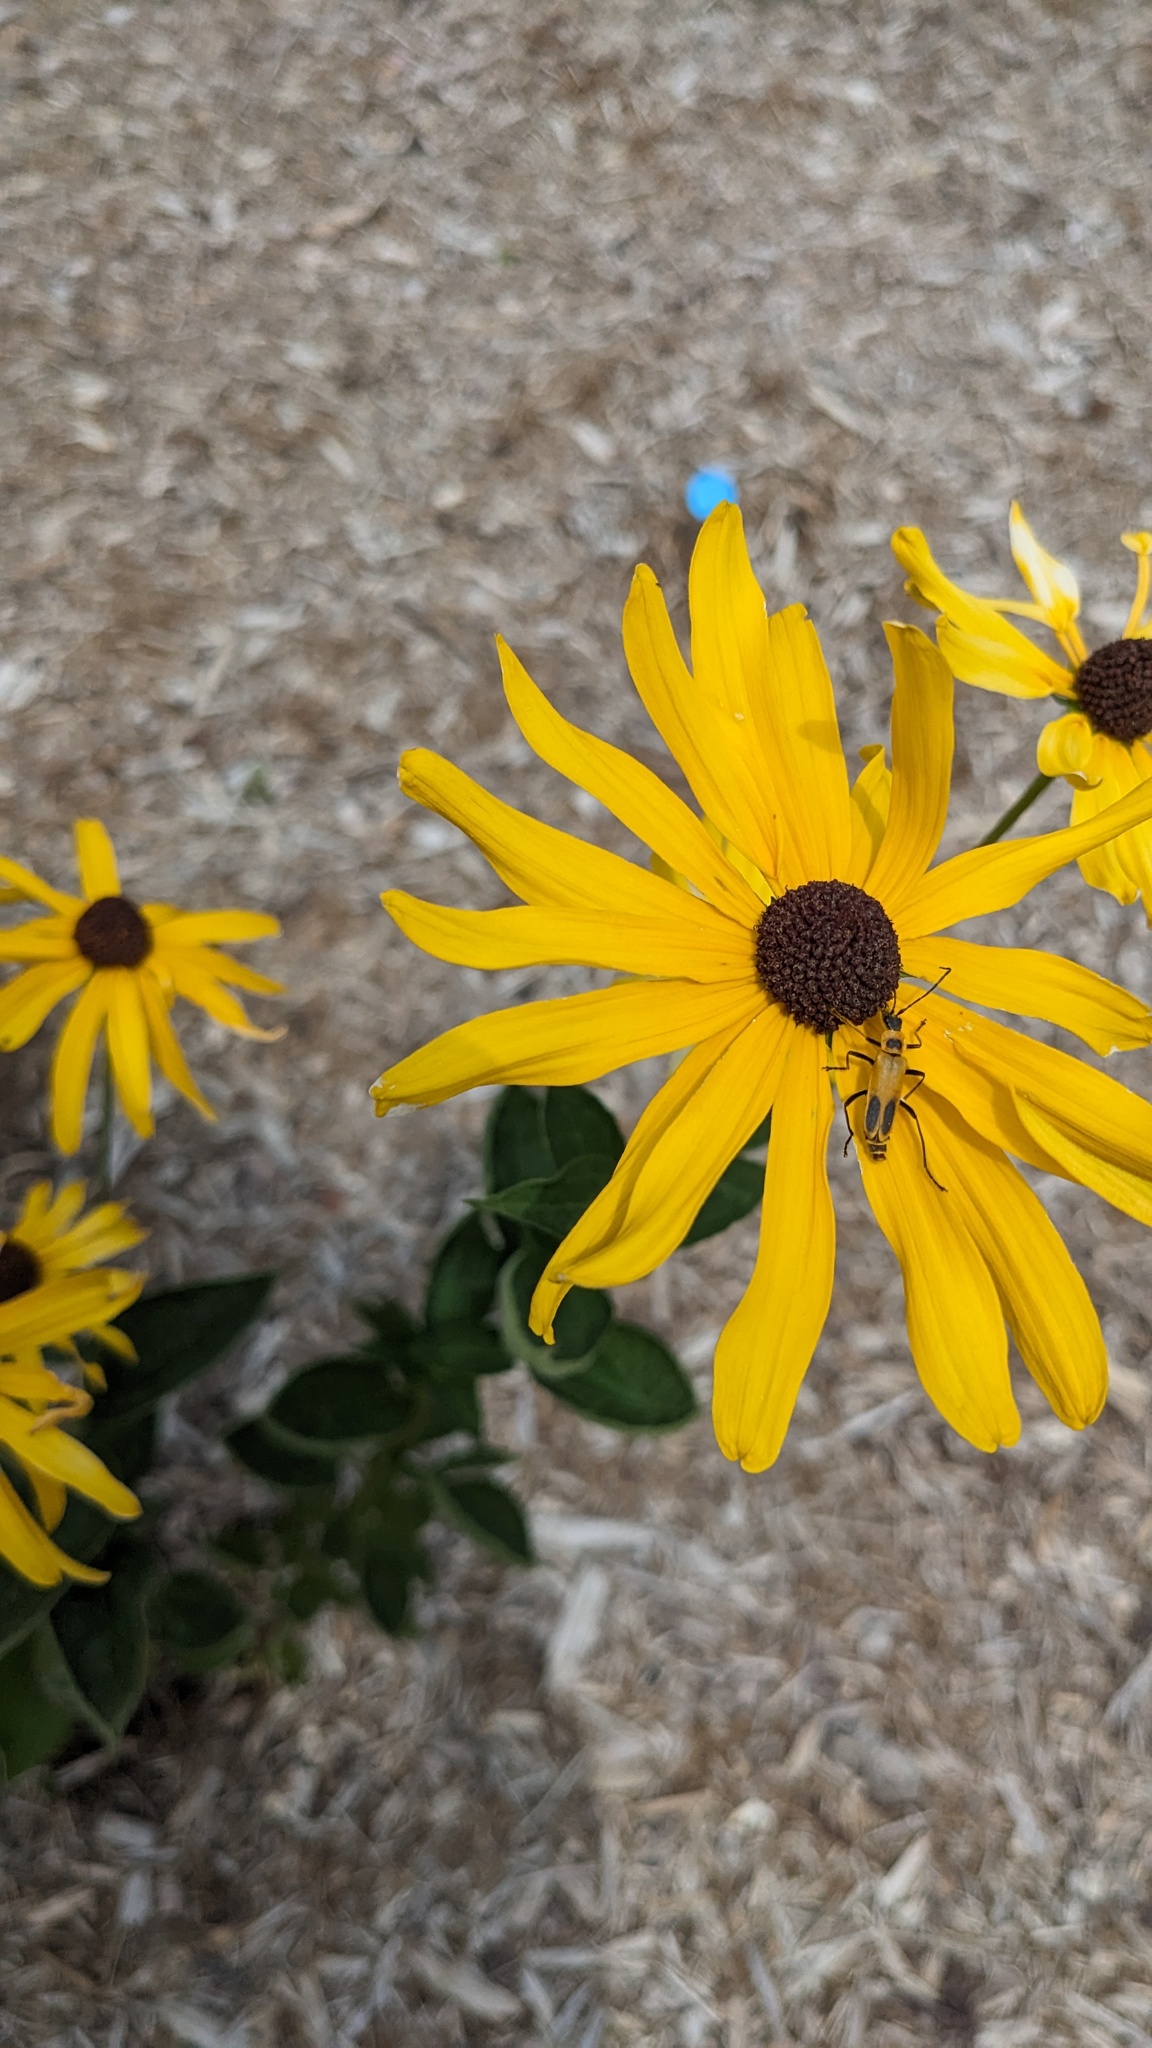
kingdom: Animalia
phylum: Arthropoda
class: Insecta
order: Coleoptera
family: Cantharidae
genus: Chauliognathus
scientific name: Chauliognathus pensylvanicus
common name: Goldenrod soldier beetle
